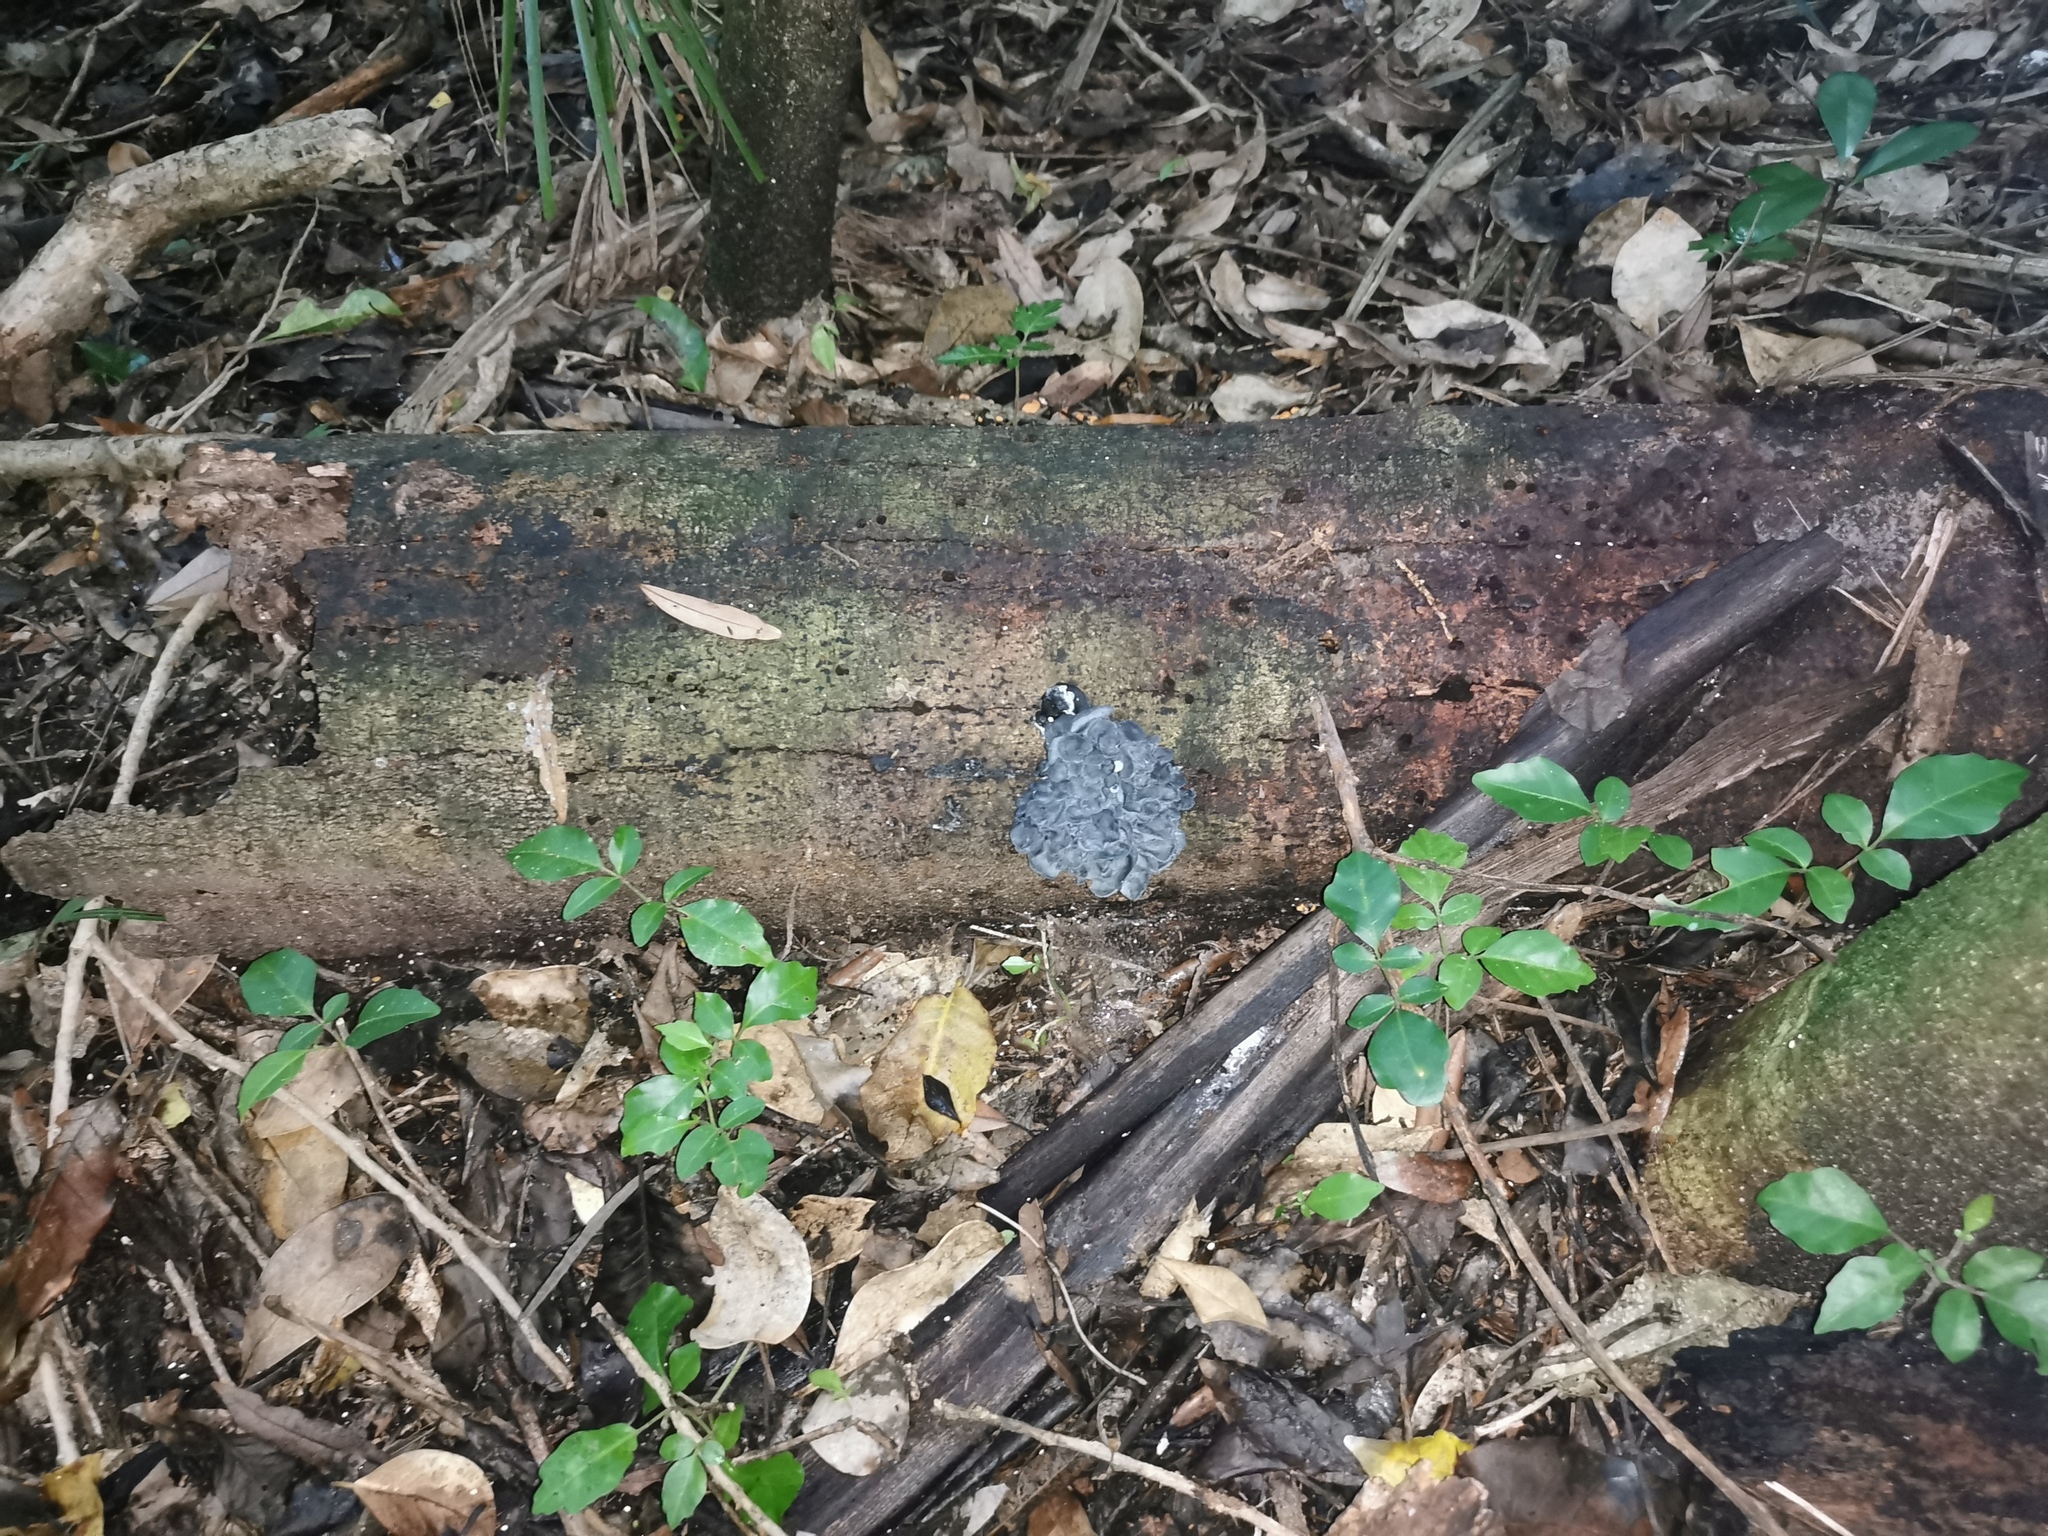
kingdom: Fungi
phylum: Basidiomycota
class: Agaricomycetes
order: Agaricales
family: Marasmiaceae
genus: Gerronema
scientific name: Gerronema waikanaense
